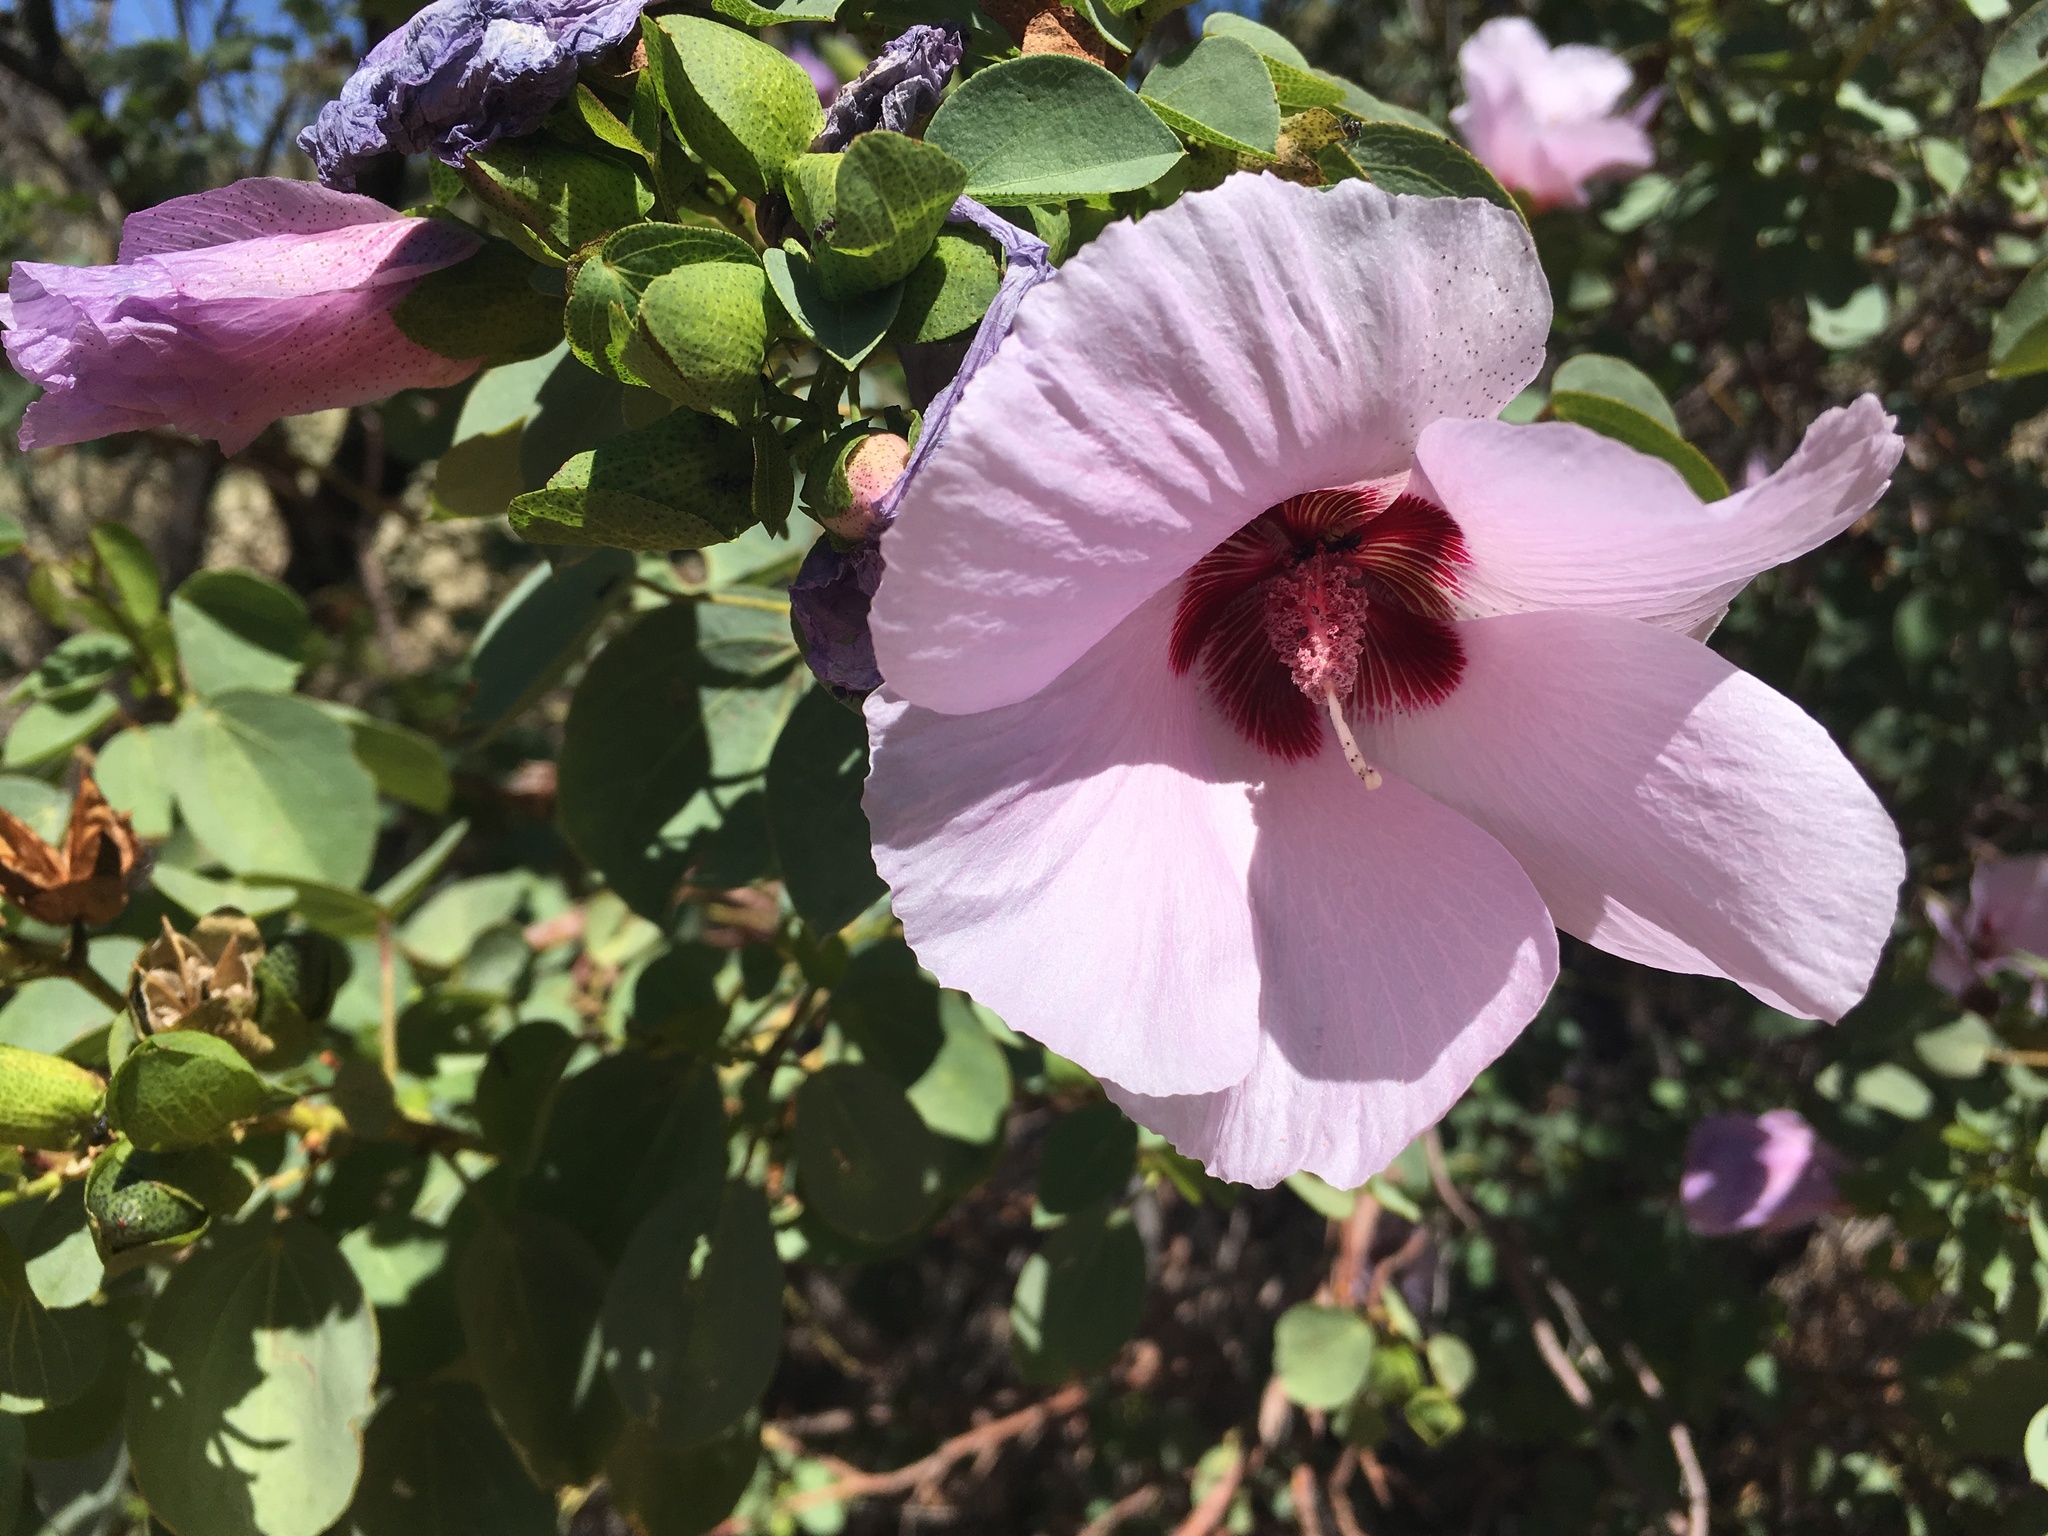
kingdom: Plantae
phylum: Tracheophyta
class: Magnoliopsida
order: Malvales
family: Malvaceae
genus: Gossypium
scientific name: Gossypium sturtianum
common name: Sturt's desert-rose
